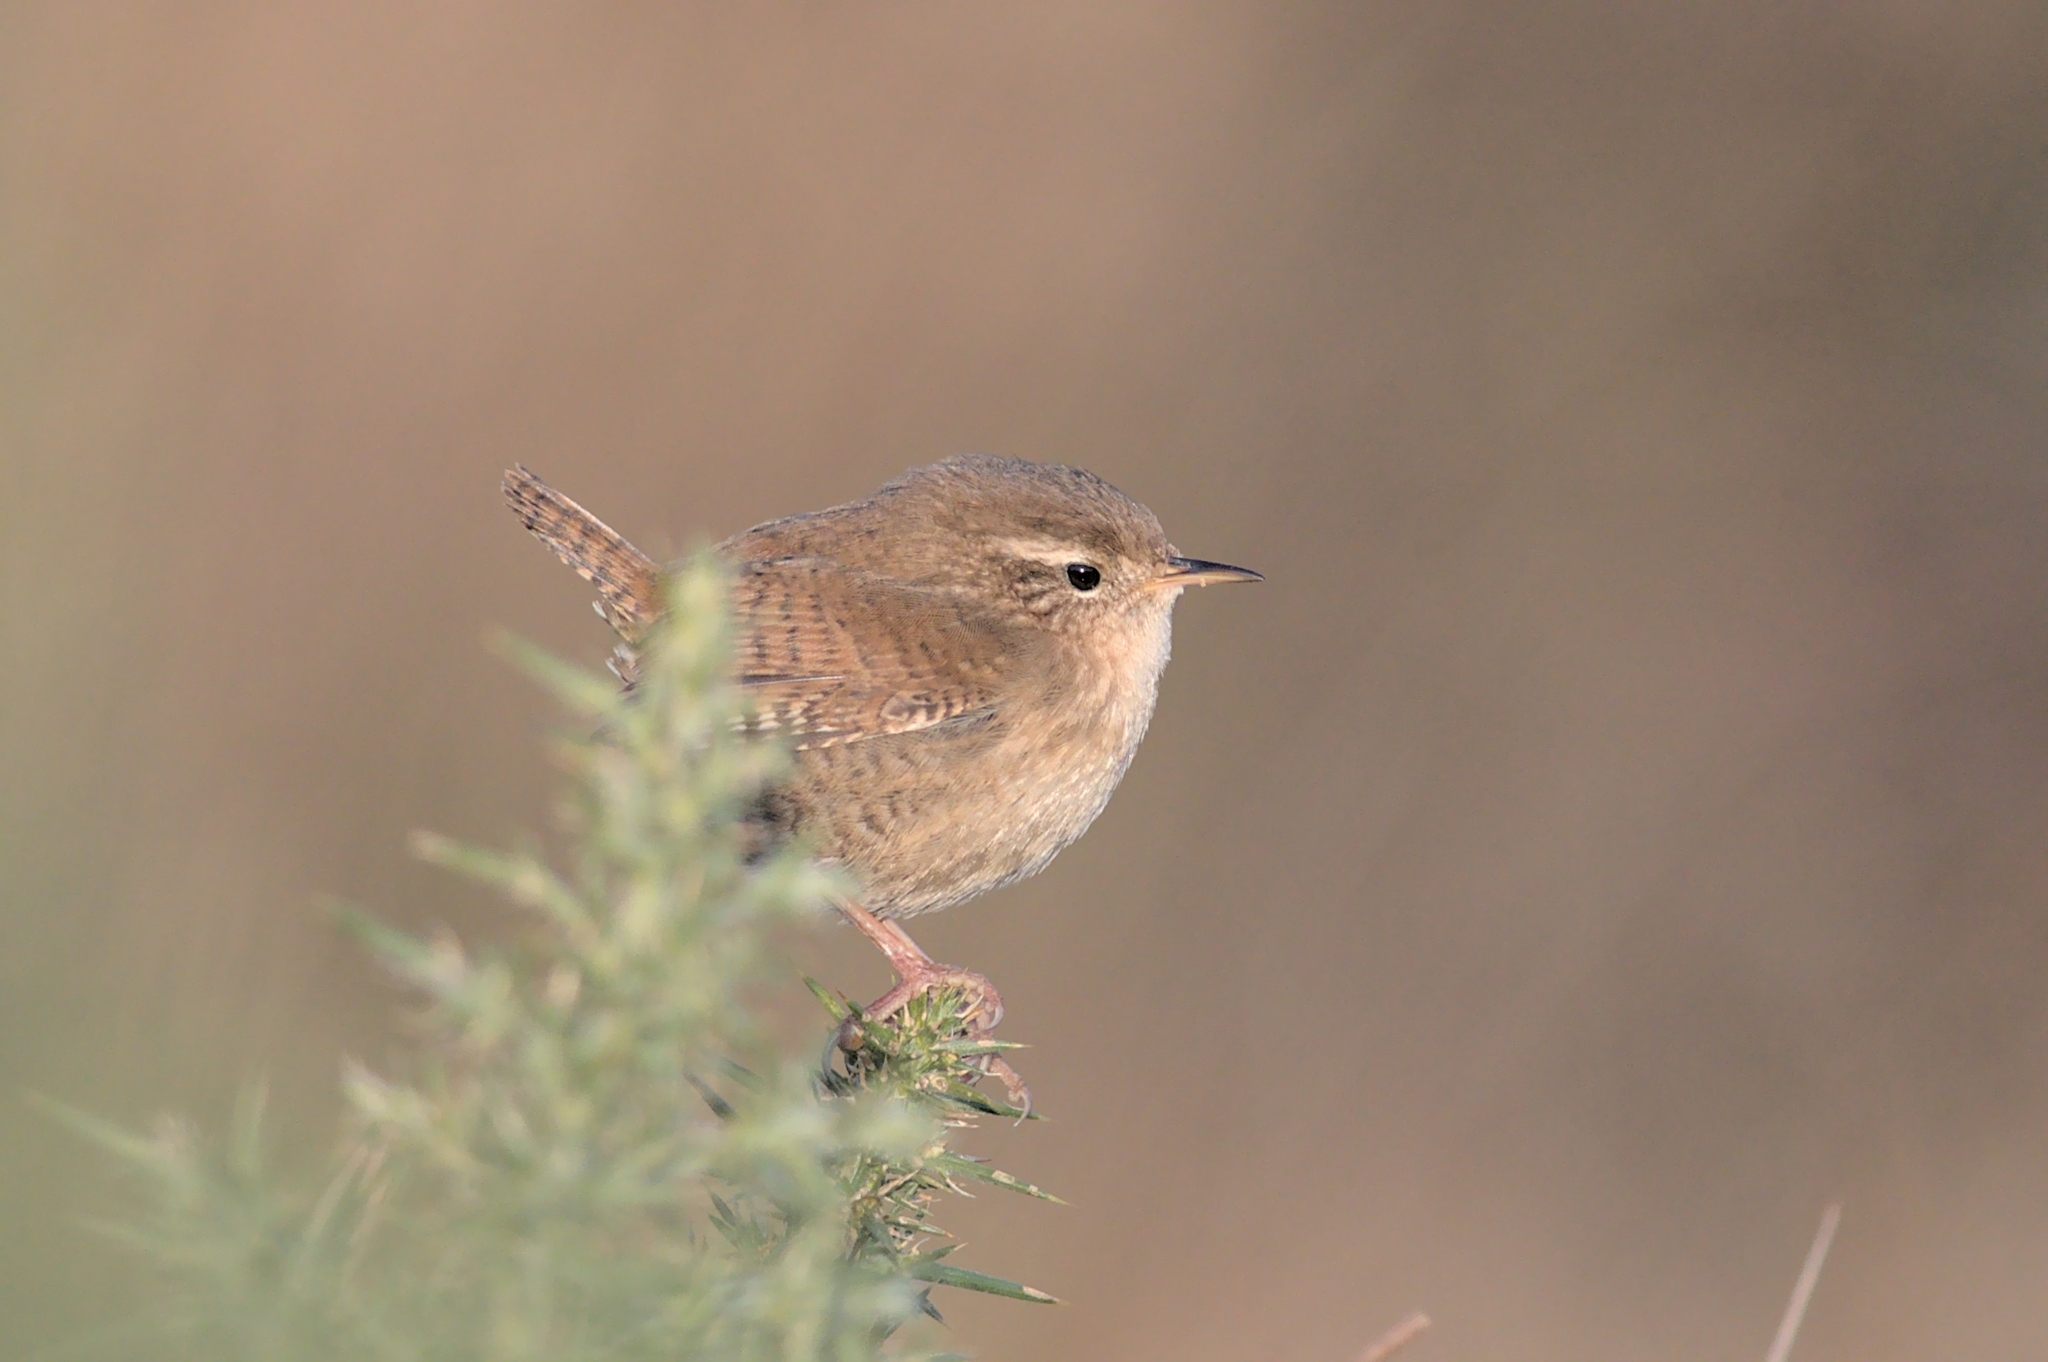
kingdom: Animalia
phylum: Chordata
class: Aves
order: Passeriformes
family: Troglodytidae
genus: Troglodytes
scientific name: Troglodytes troglodytes
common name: Eurasian wren
